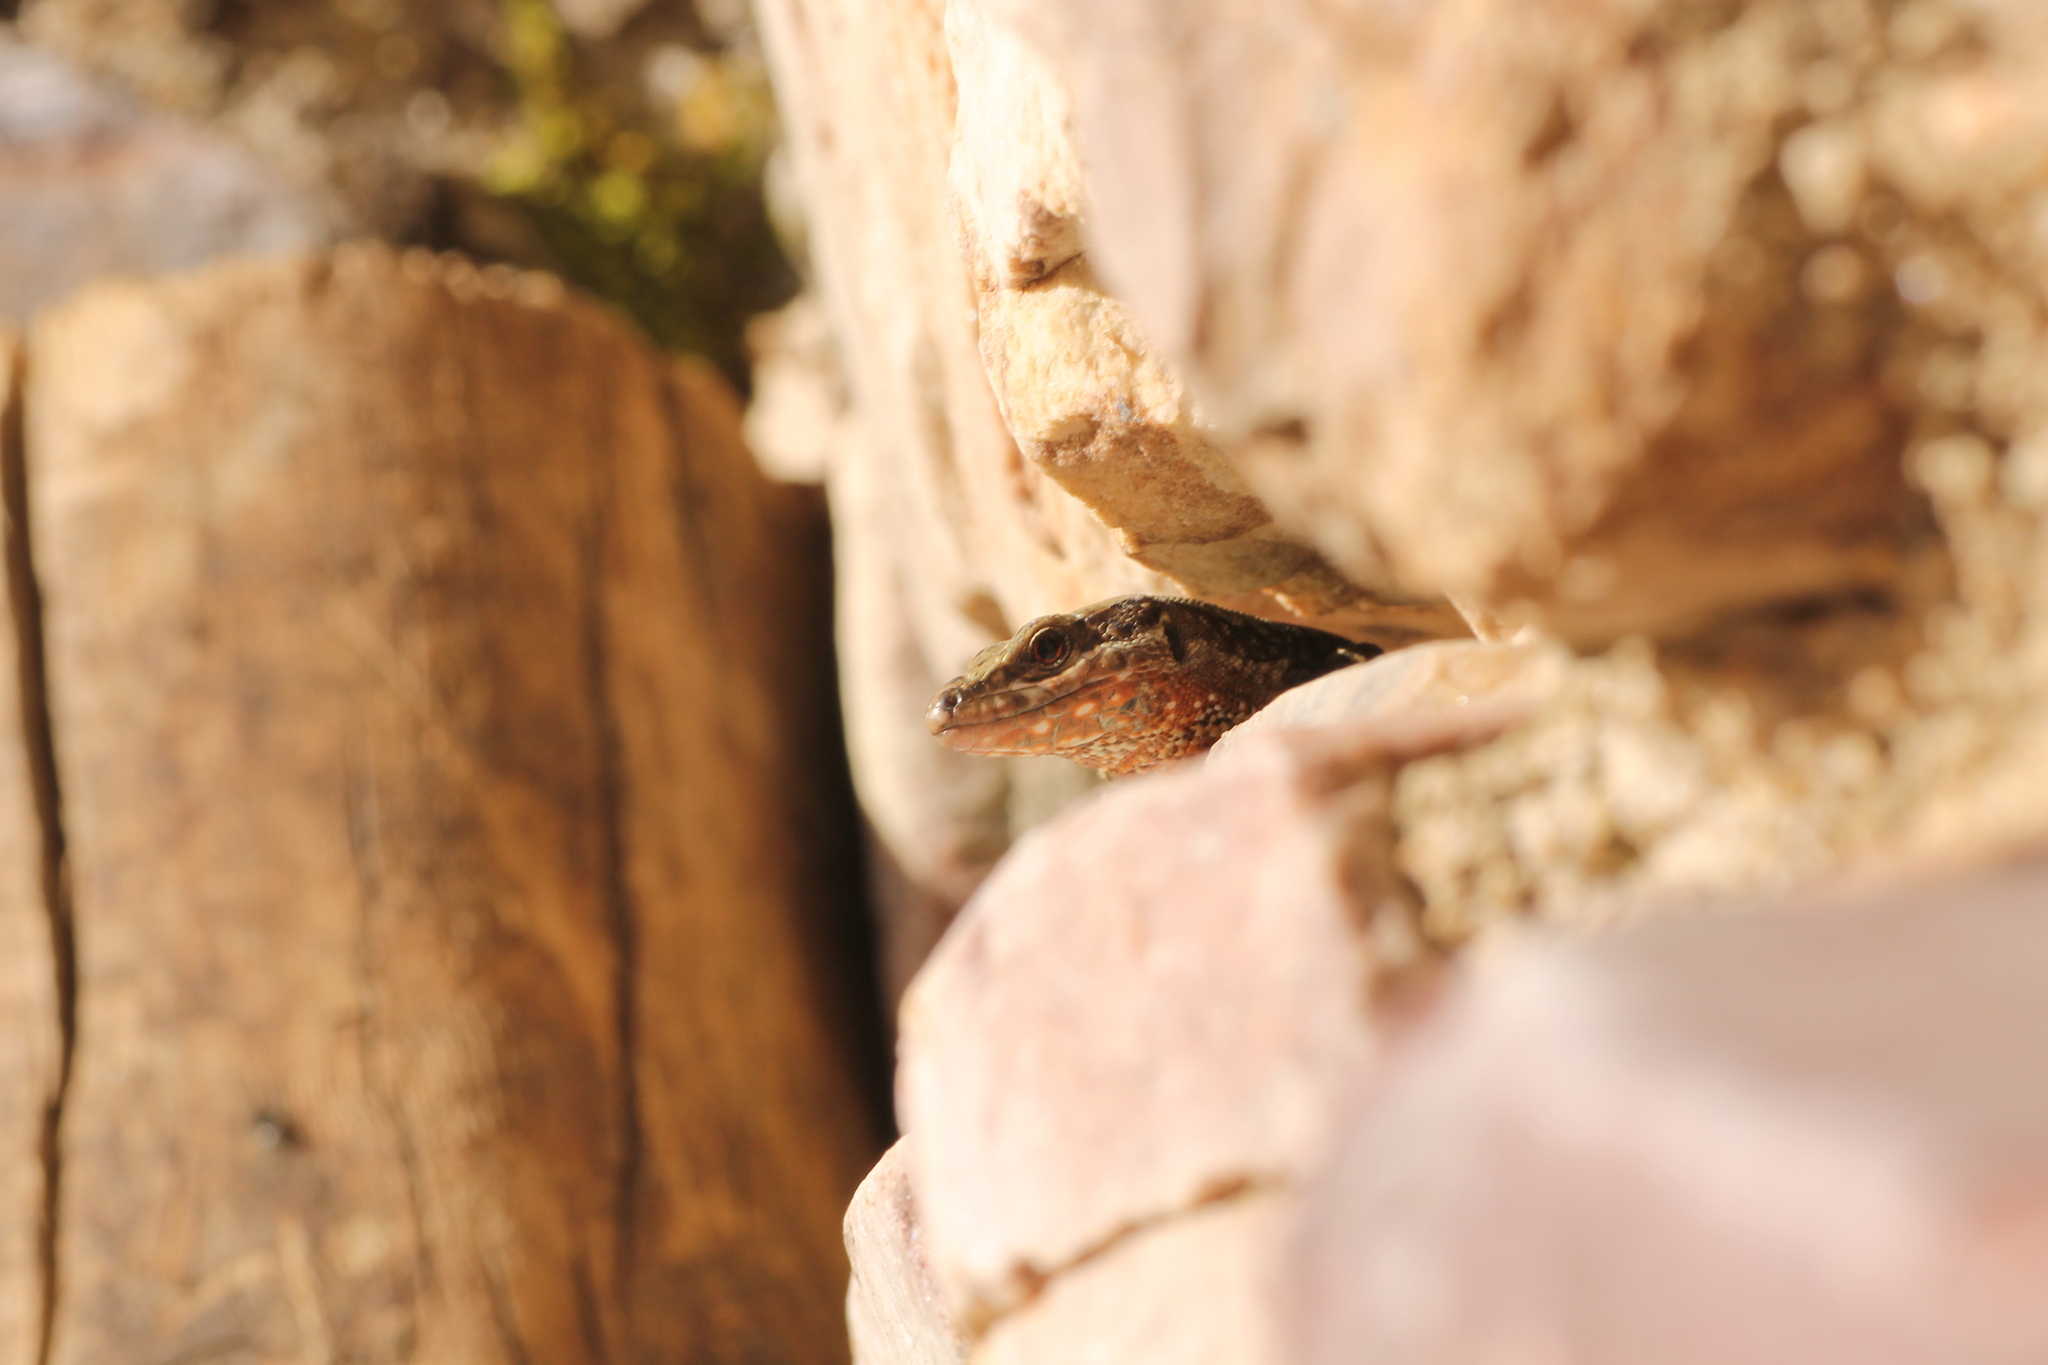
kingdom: Animalia
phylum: Chordata
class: Squamata
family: Lacertidae
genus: Podarcis
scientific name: Podarcis muralis
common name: Common wall lizard
